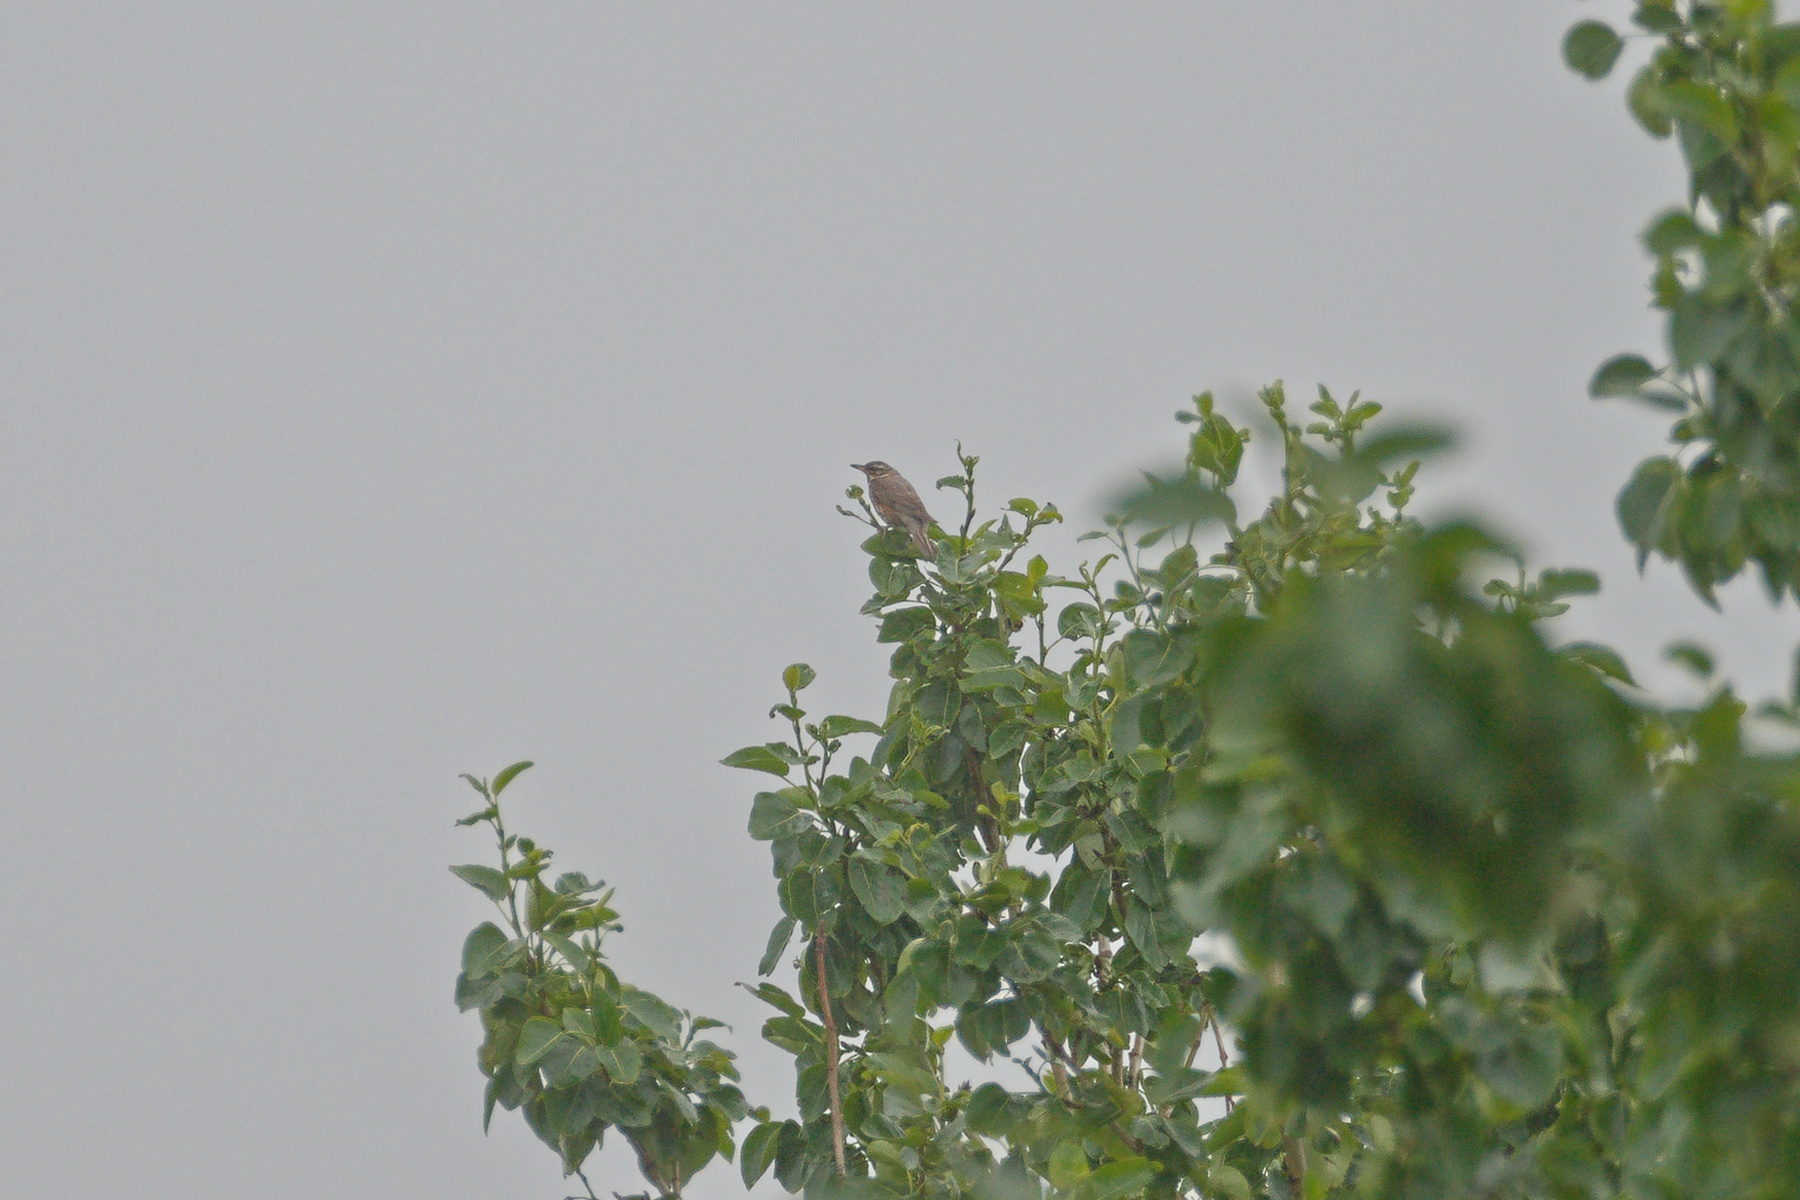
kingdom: Animalia
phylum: Chordata
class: Aves
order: Passeriformes
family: Turdidae
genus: Turdus
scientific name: Turdus iliacus
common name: Redwing
